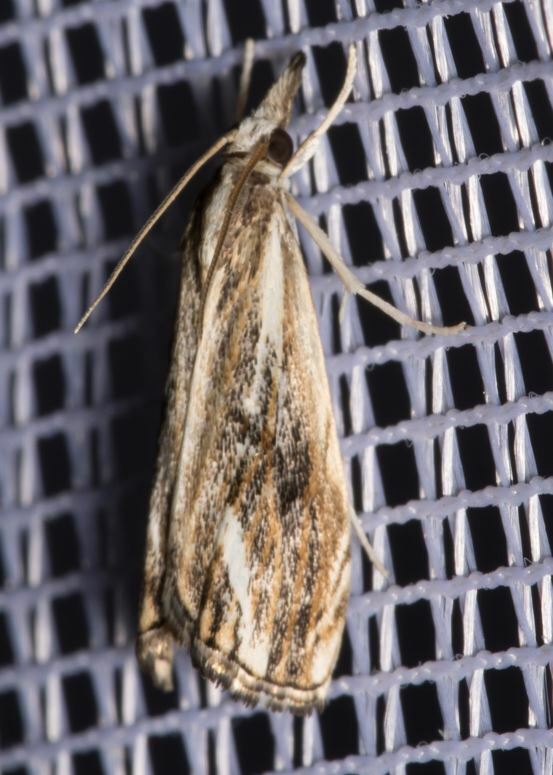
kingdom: Animalia
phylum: Arthropoda
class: Insecta
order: Lepidoptera
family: Crambidae
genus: Catoptria
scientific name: Catoptria verellus
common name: Marbled grass-veneer
